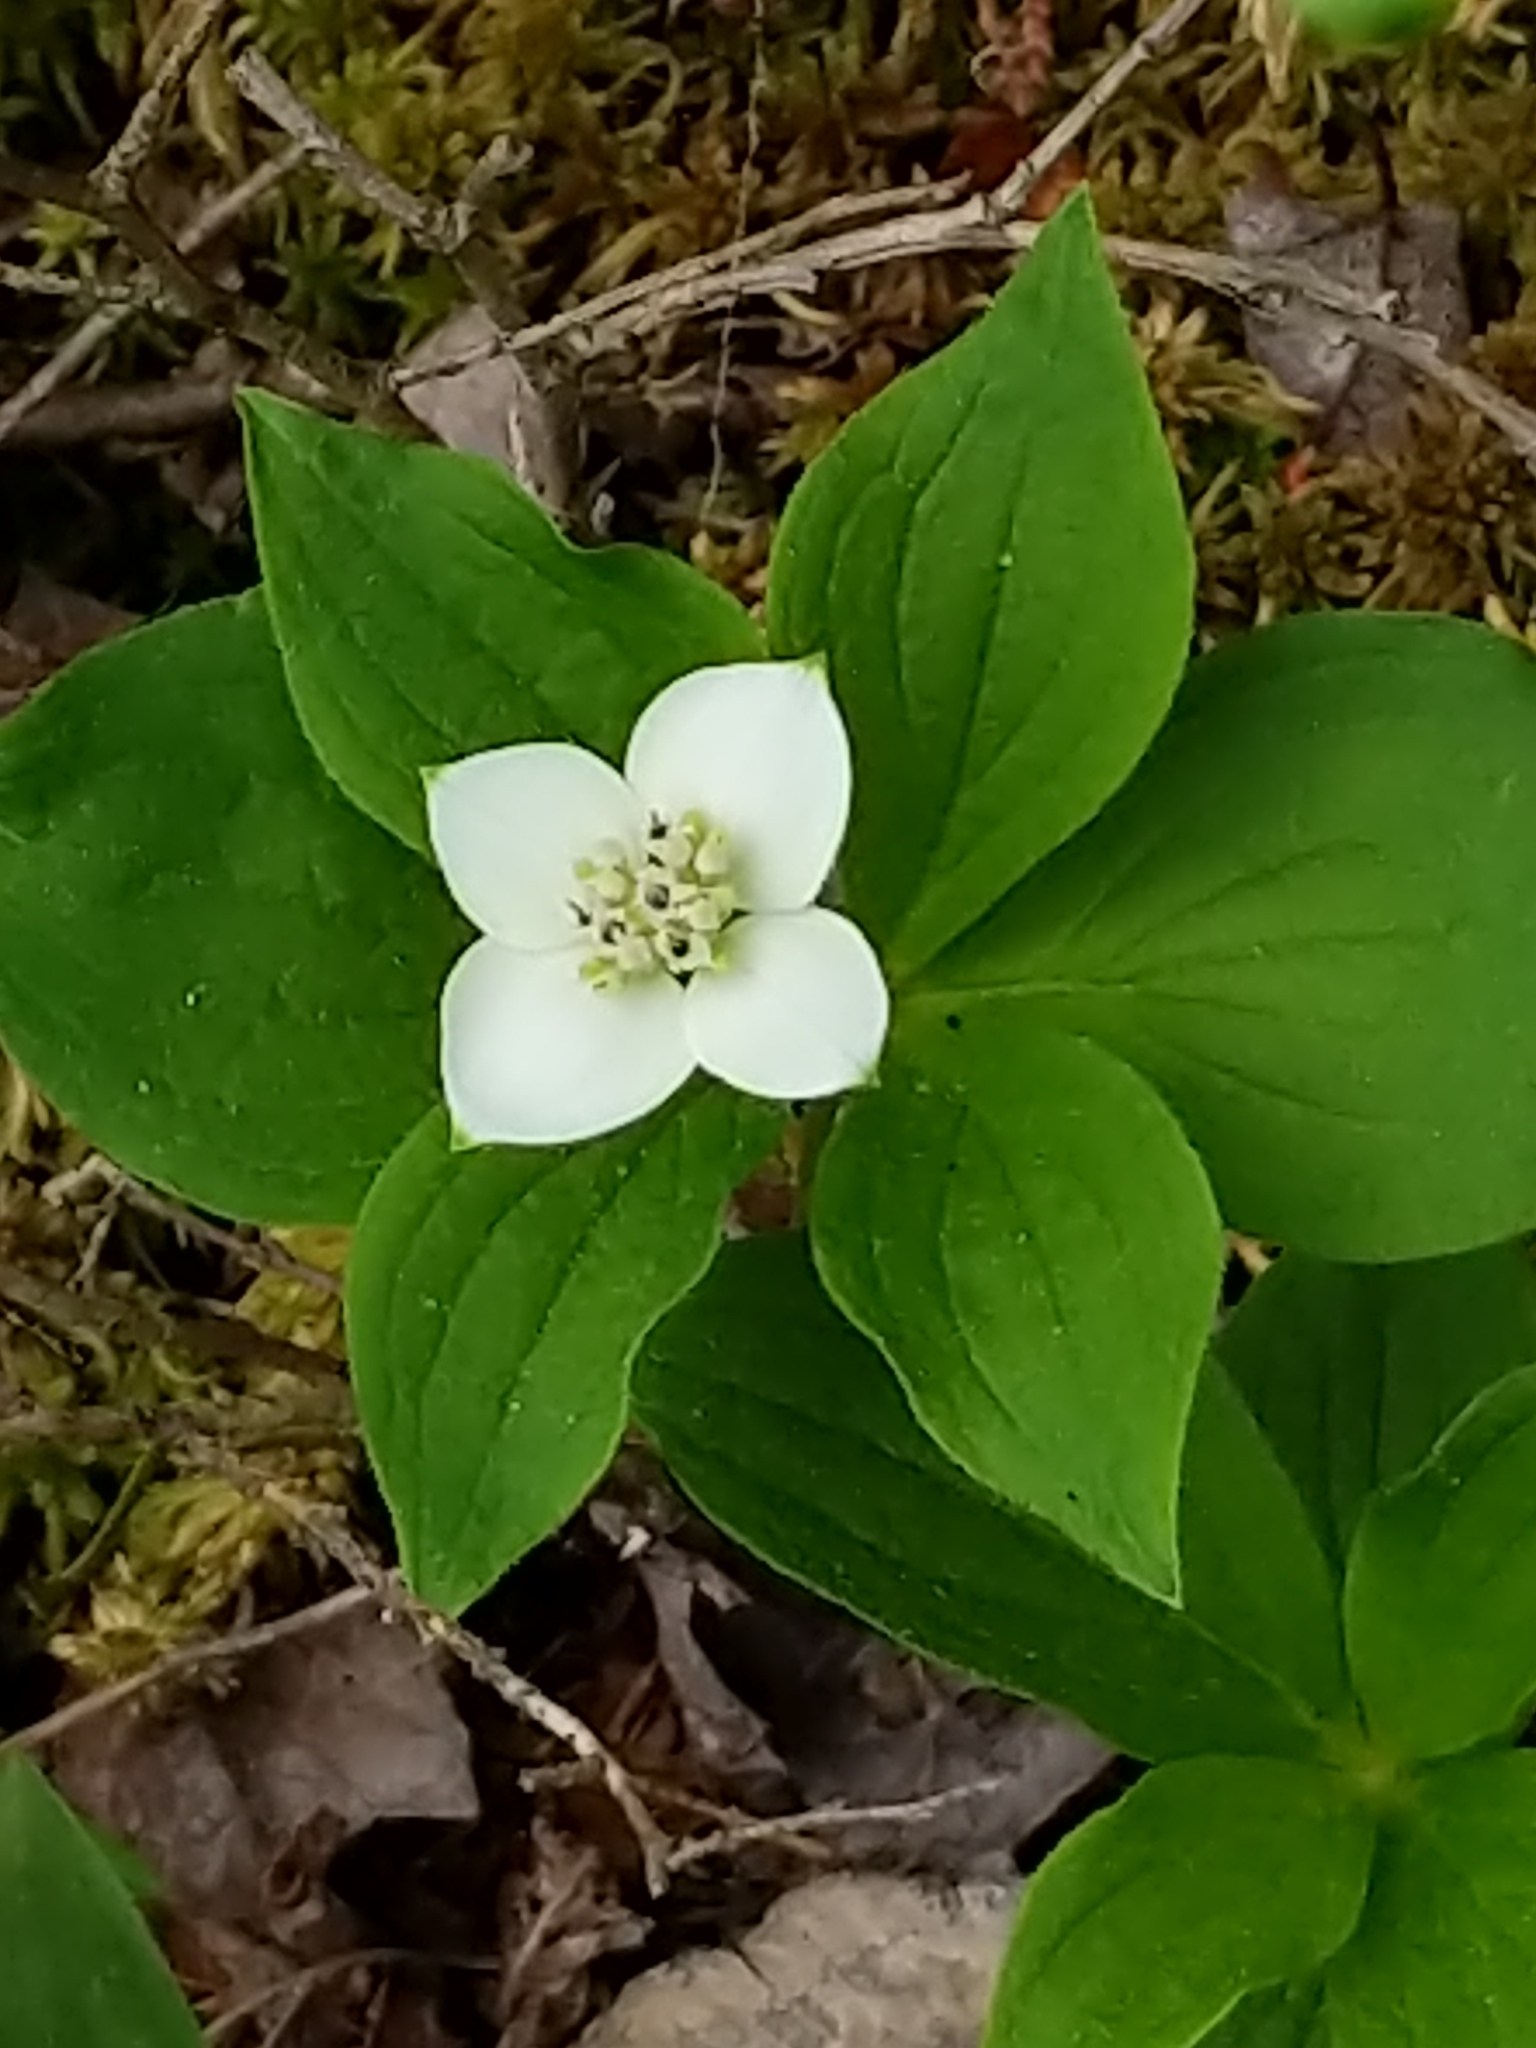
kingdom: Plantae
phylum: Tracheophyta
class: Magnoliopsida
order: Cornales
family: Cornaceae
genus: Cornus
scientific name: Cornus canadensis
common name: Creeping dogwood
